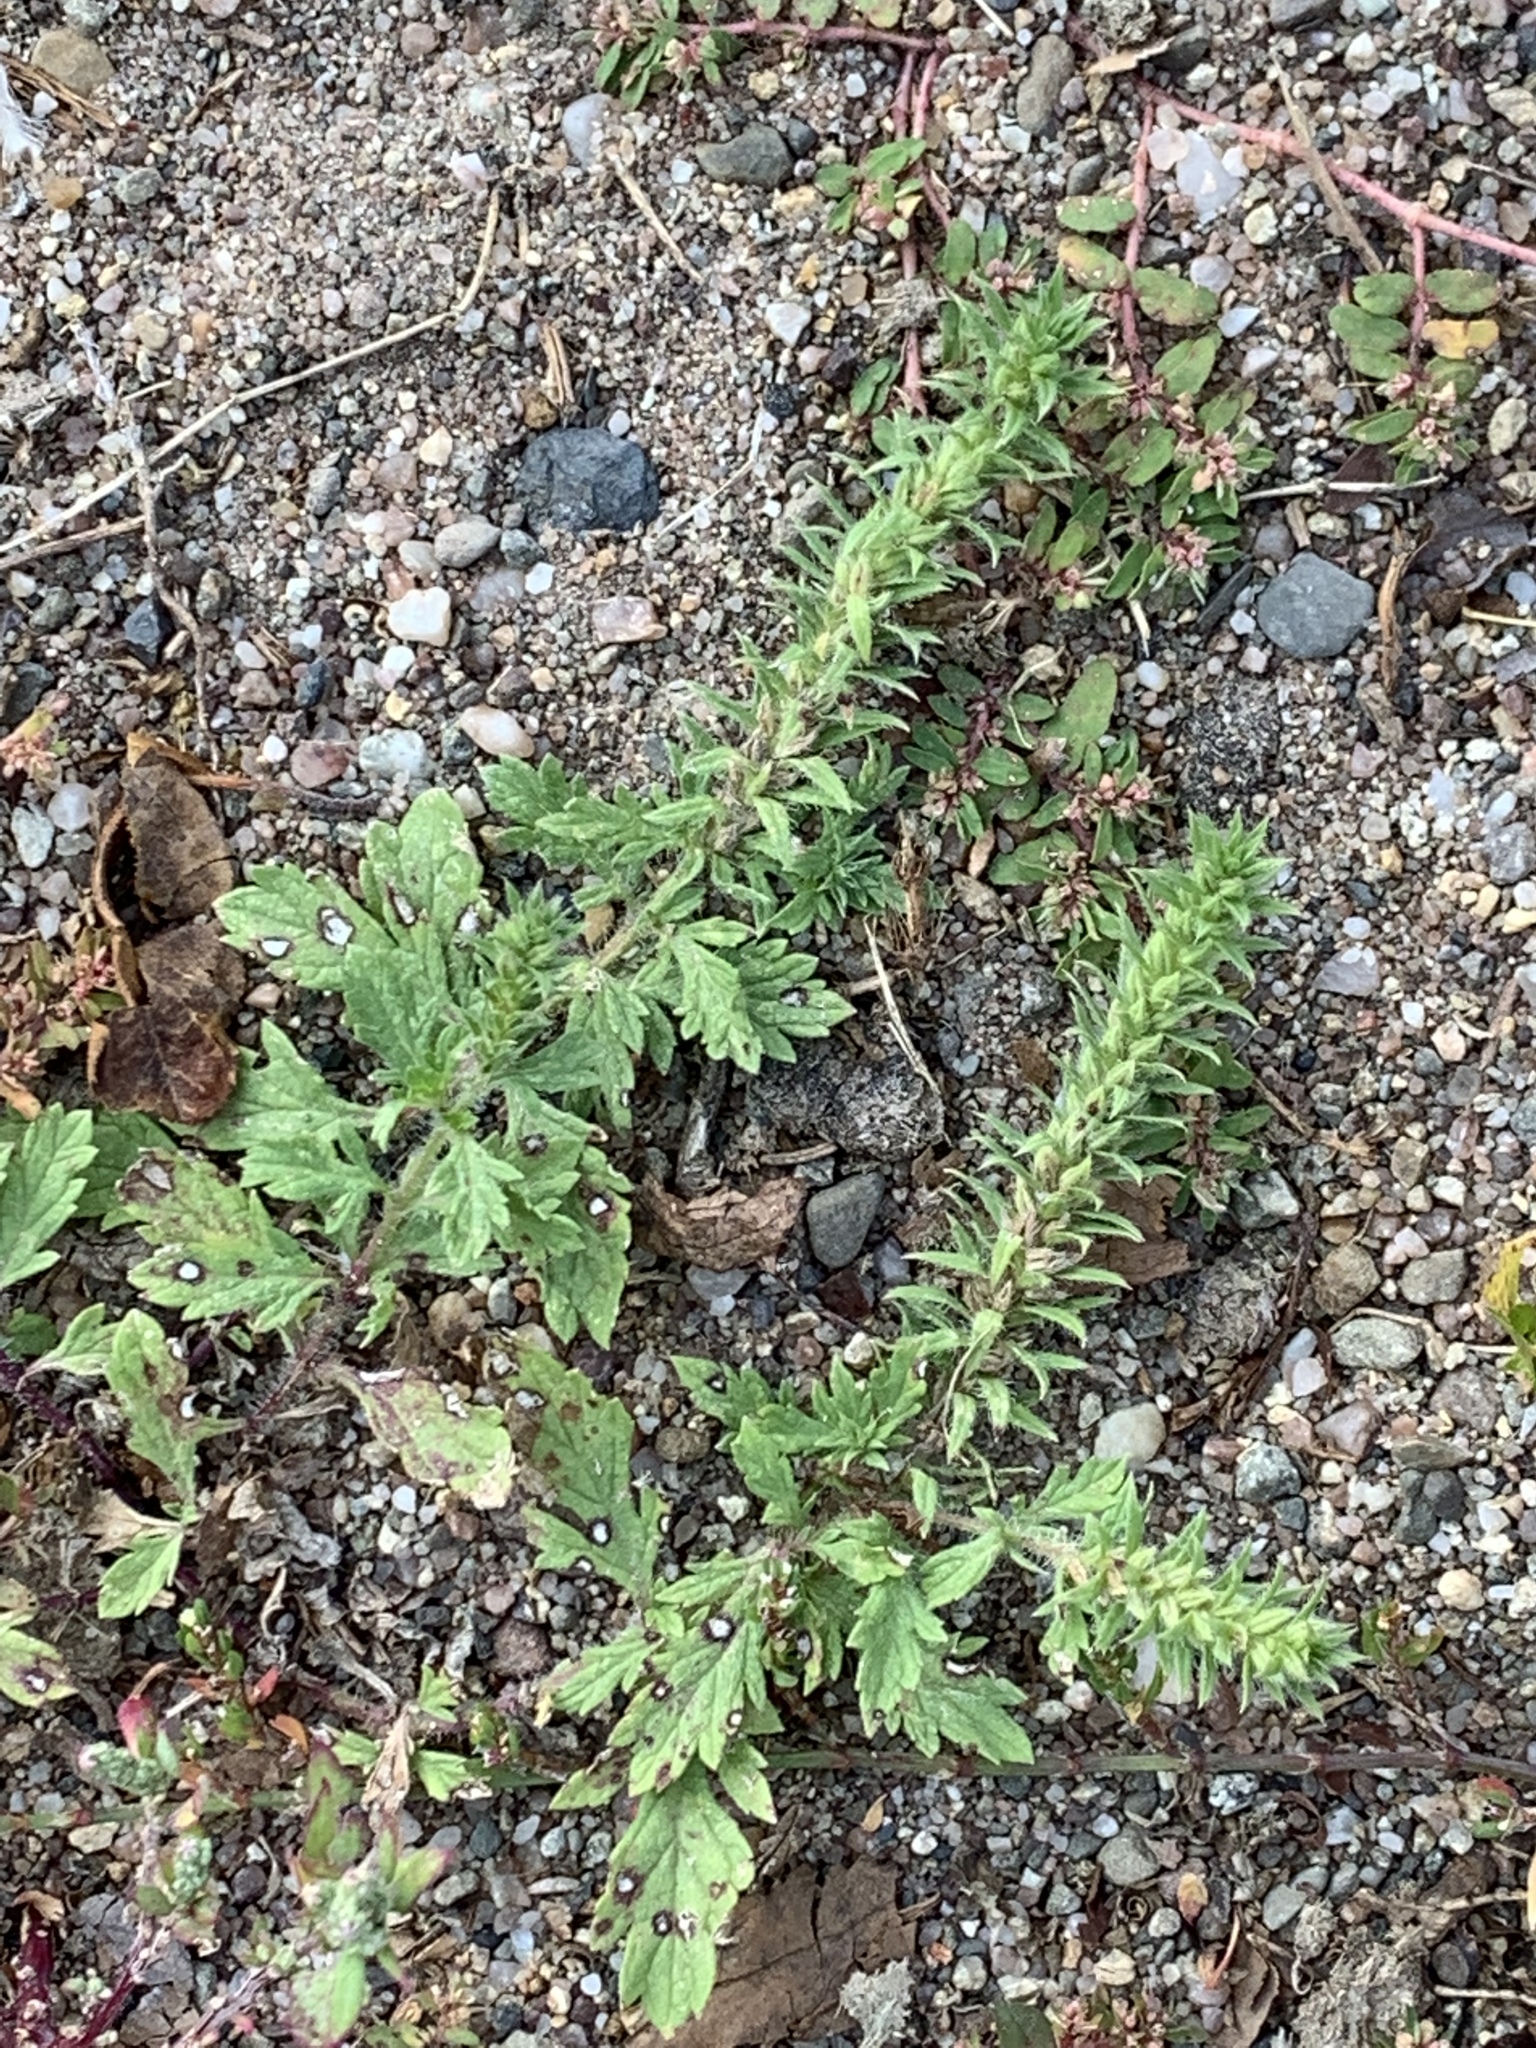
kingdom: Plantae
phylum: Tracheophyta
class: Magnoliopsida
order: Lamiales
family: Verbenaceae
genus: Verbena
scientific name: Verbena bracteata
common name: Bracted vervain
